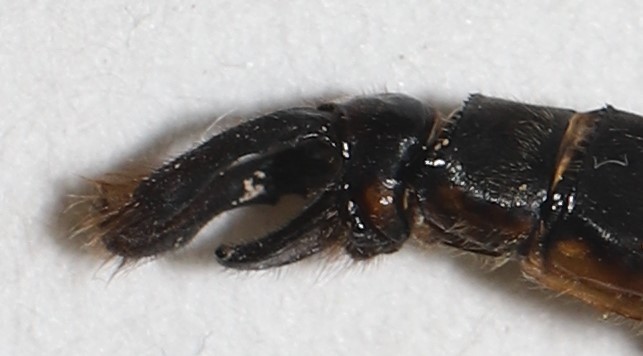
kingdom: Animalia
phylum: Arthropoda
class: Insecta
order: Odonata
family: Corduliidae
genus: Somatochlora
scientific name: Somatochlora walshii
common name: Brush-tipped emerald
